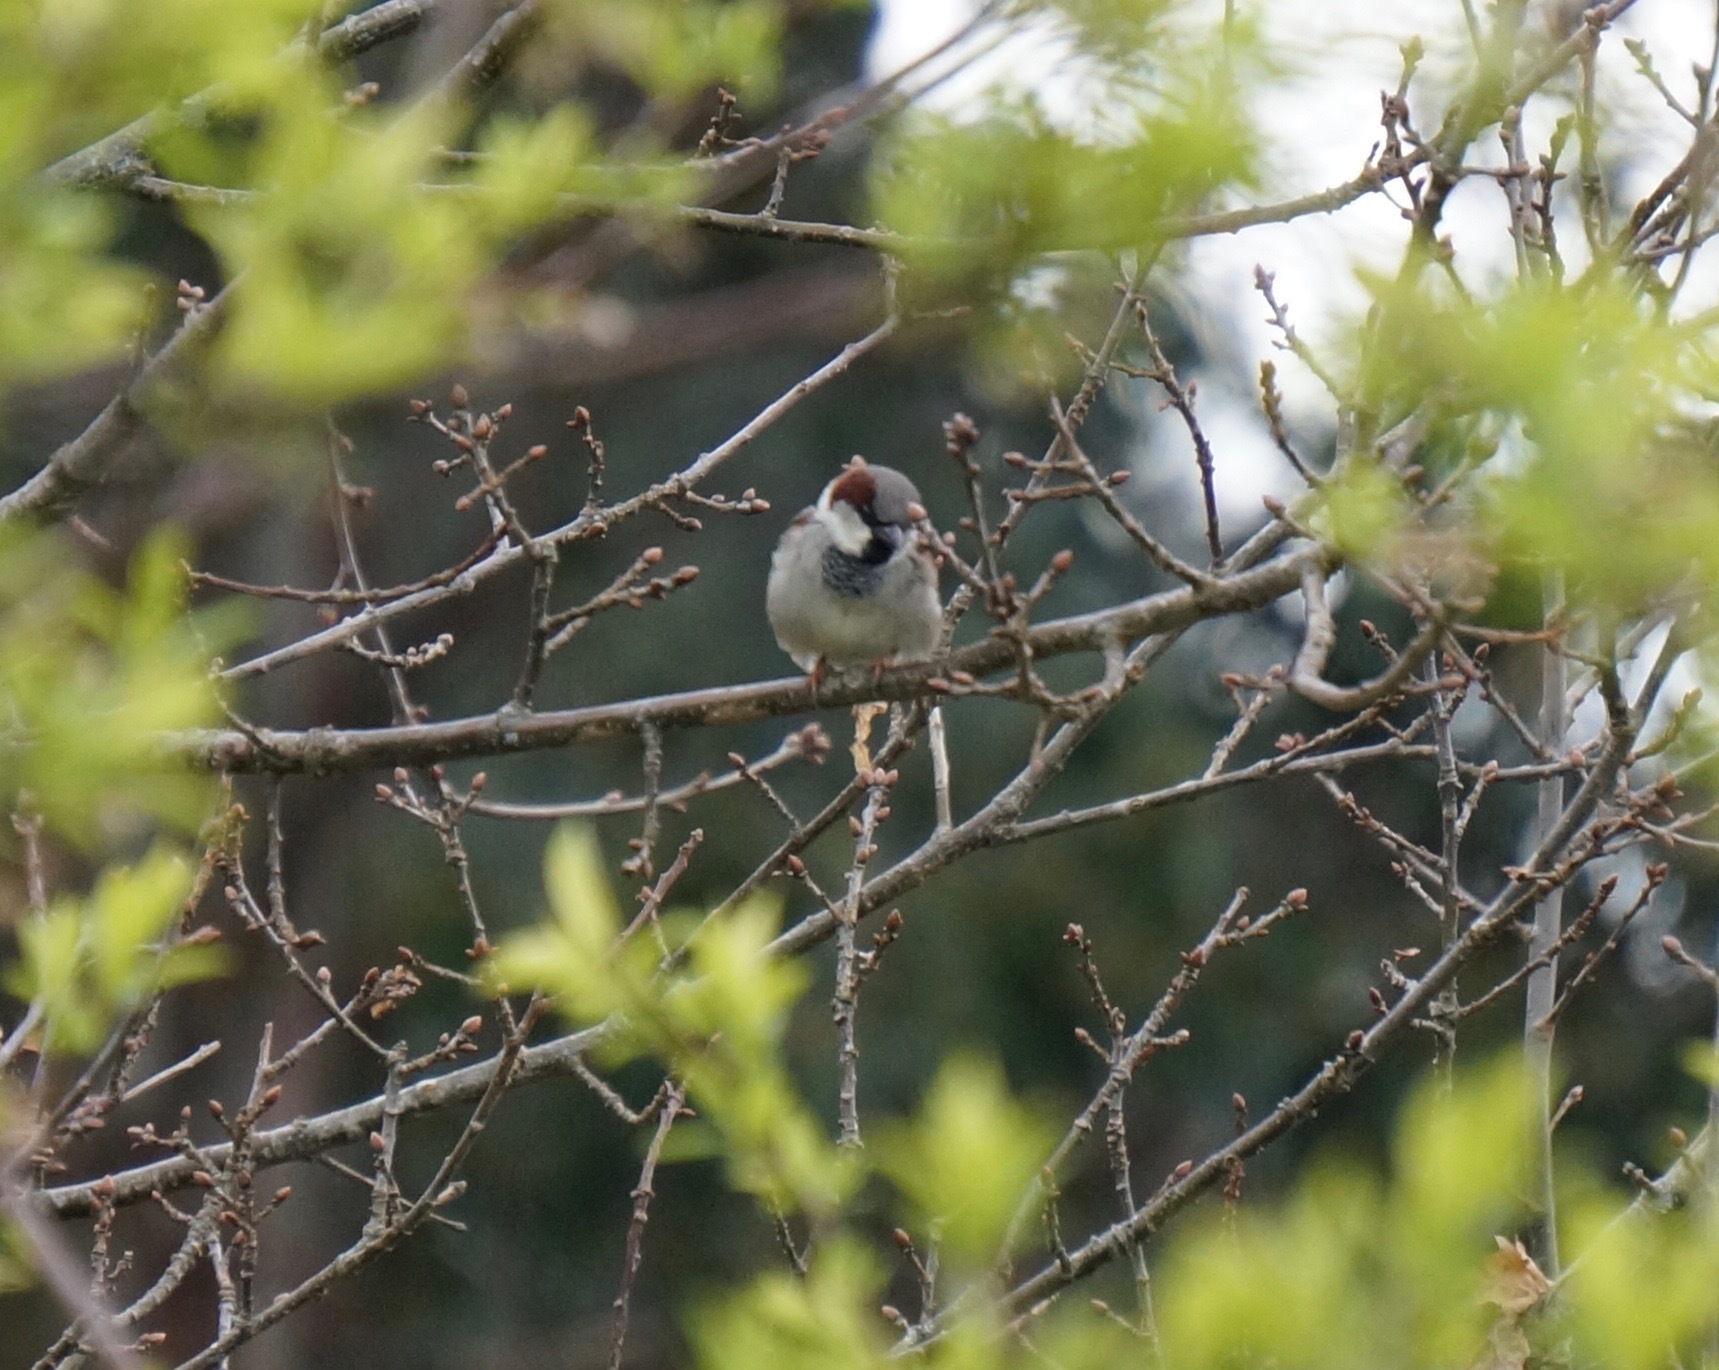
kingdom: Animalia
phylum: Chordata
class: Aves
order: Passeriformes
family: Passeridae
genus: Passer
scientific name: Passer domesticus
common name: House sparrow
